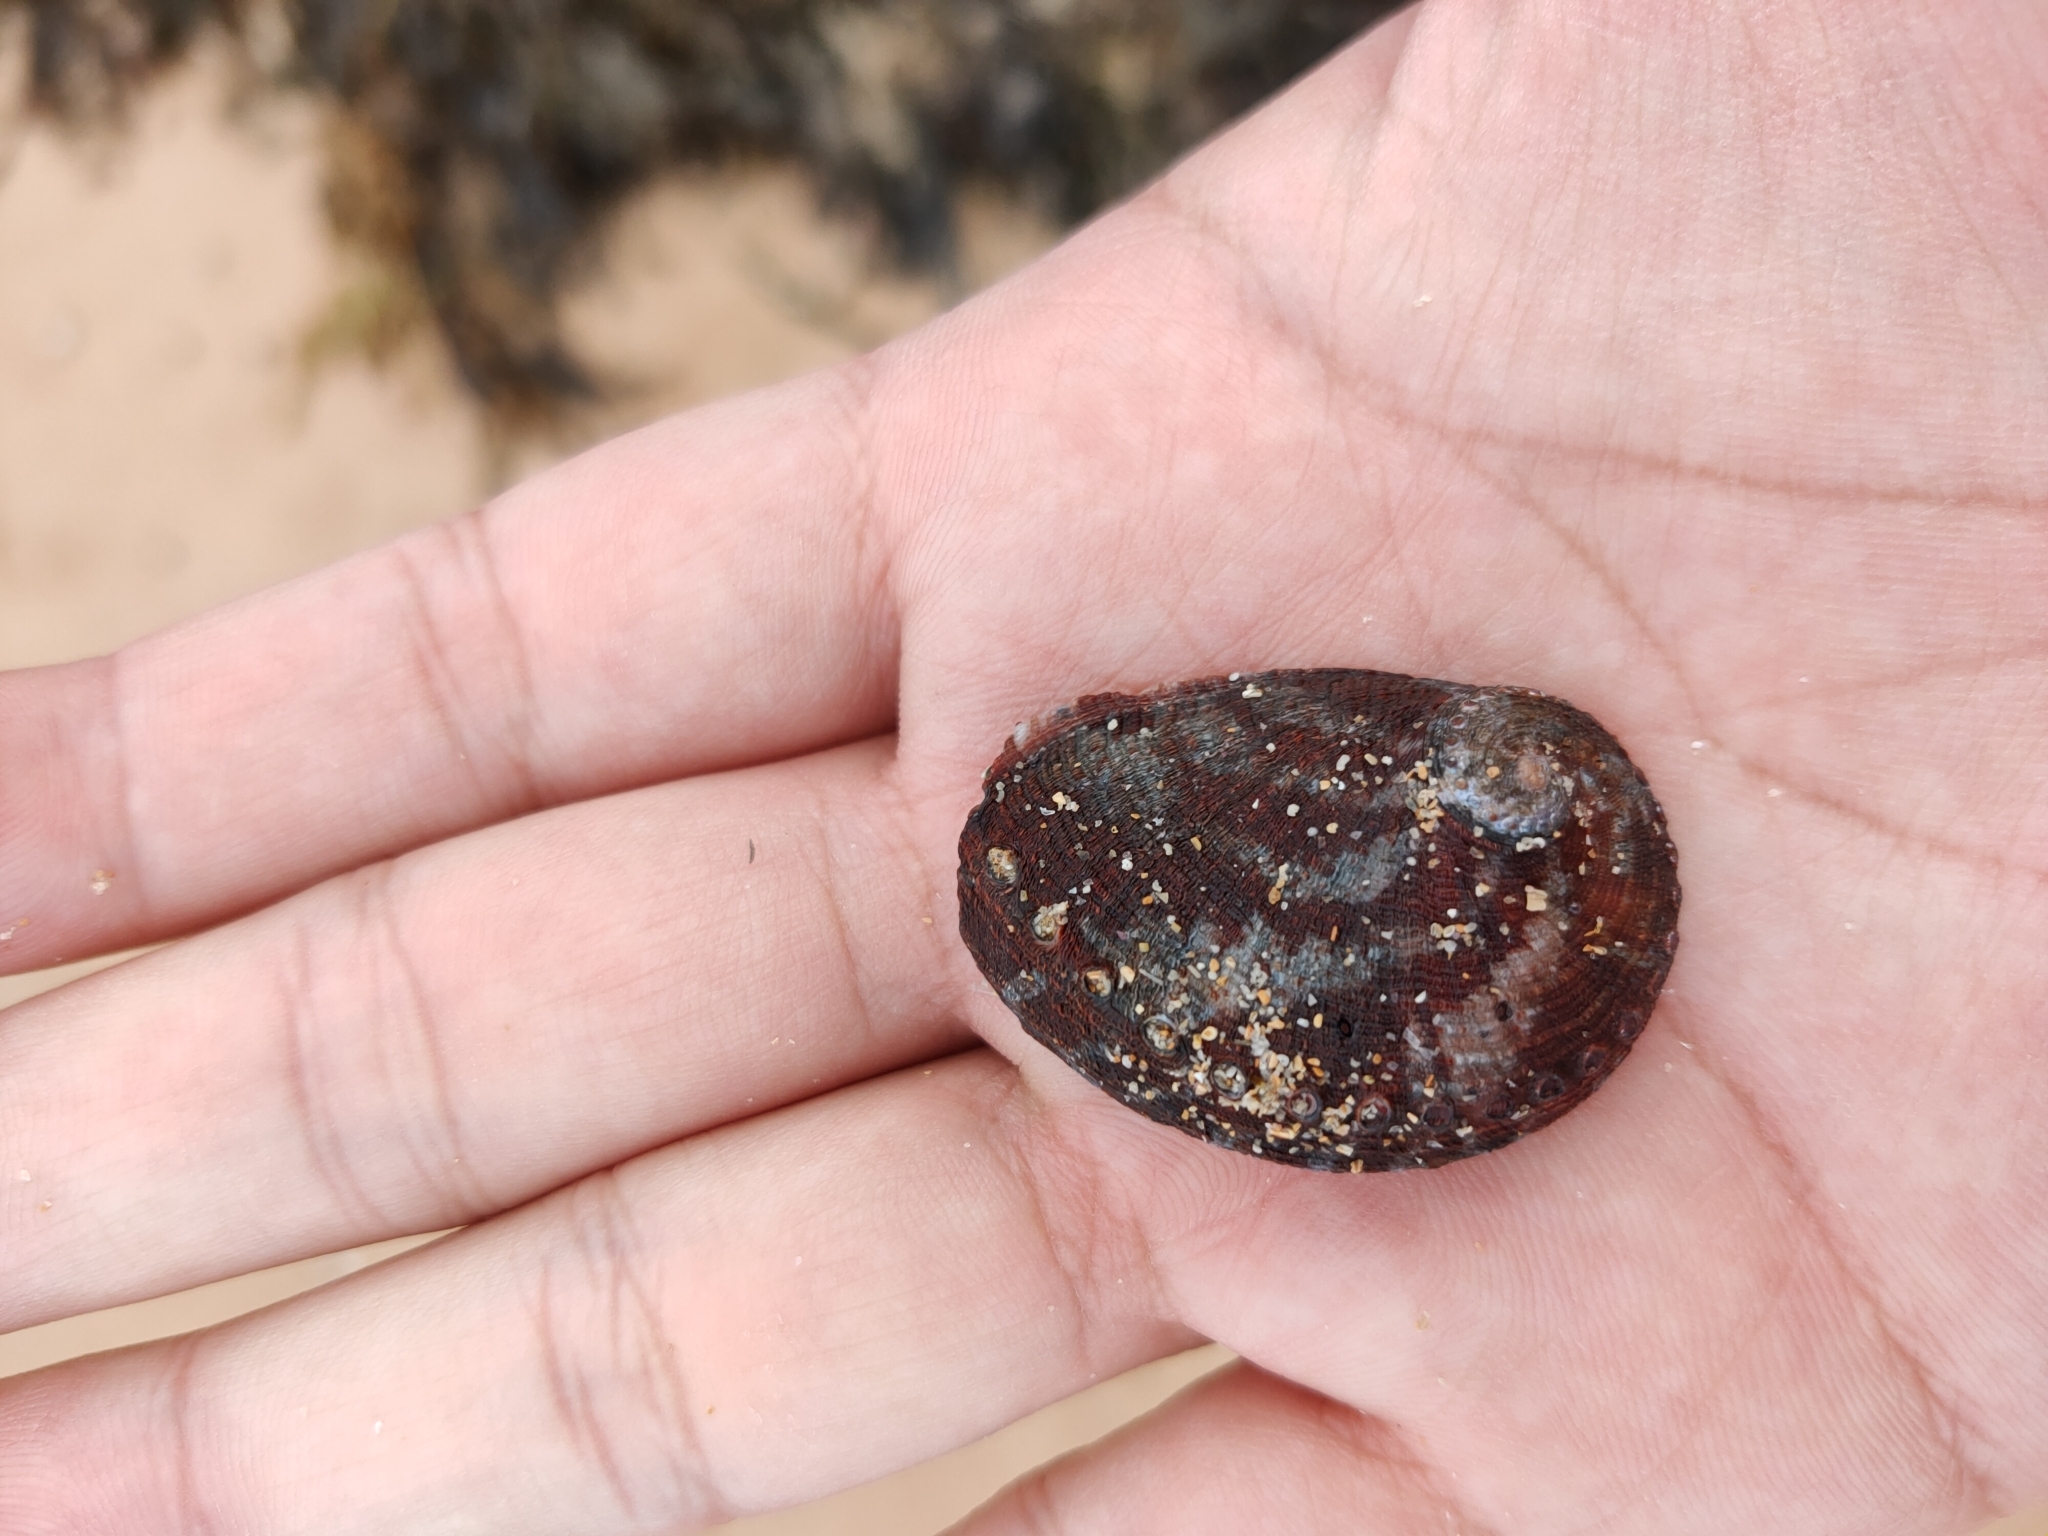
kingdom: Animalia
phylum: Mollusca
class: Gastropoda
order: Lepetellida
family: Haliotidae
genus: Haliotis
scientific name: Haliotis coccoradiata
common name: Reddish-rayed abalone
